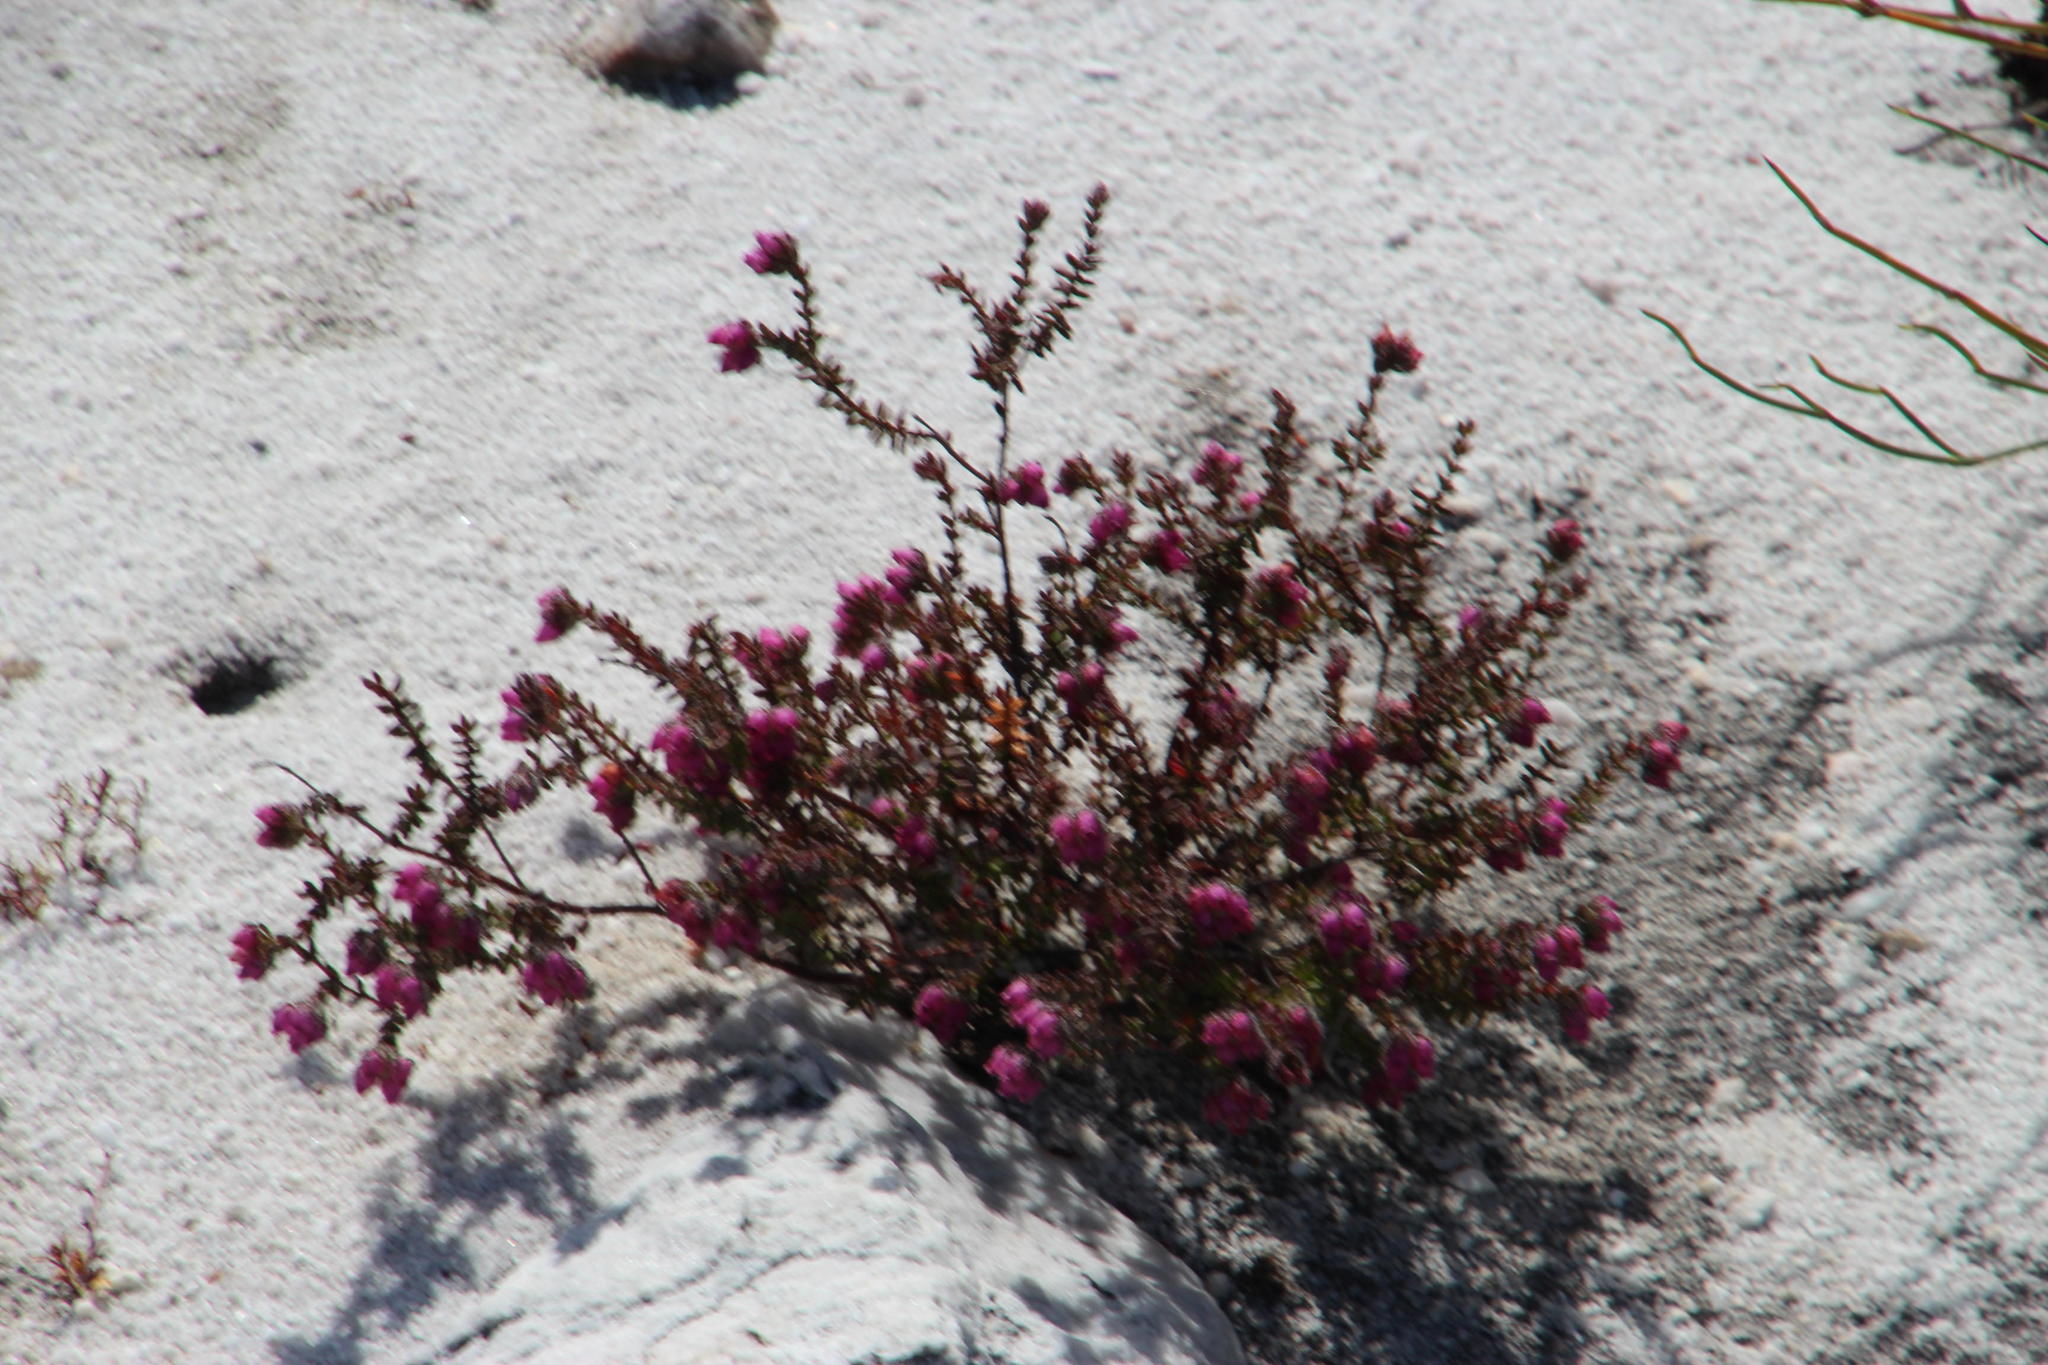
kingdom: Plantae
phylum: Tracheophyta
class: Magnoliopsida
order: Ericales
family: Ericaceae
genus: Erica
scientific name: Erica clavisepala
